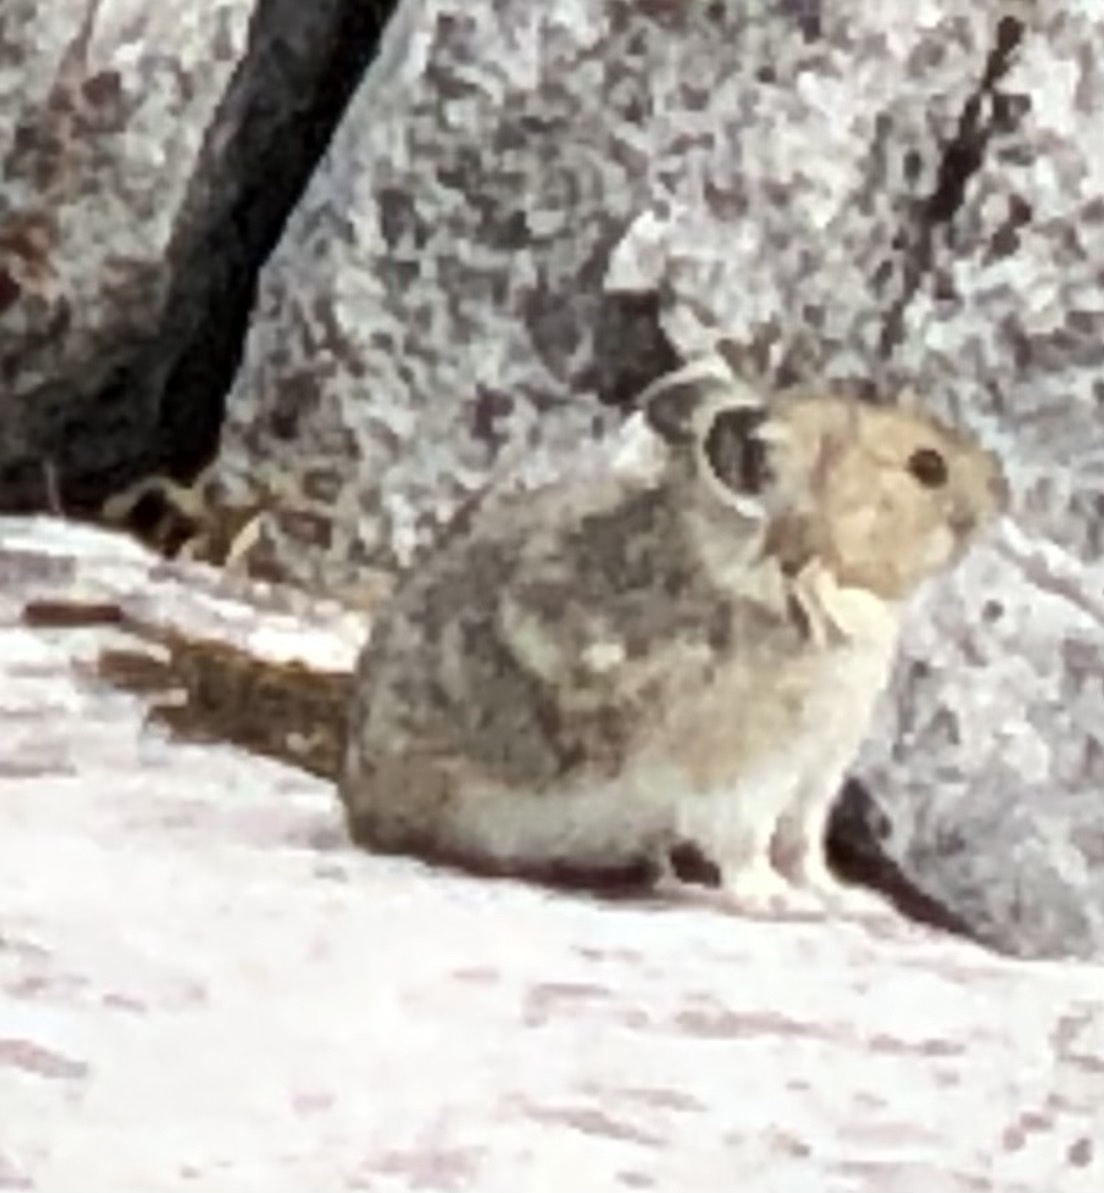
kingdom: Animalia
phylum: Chordata
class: Mammalia
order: Lagomorpha
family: Ochotonidae
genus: Ochotona
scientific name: Ochotona princeps
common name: American pika
